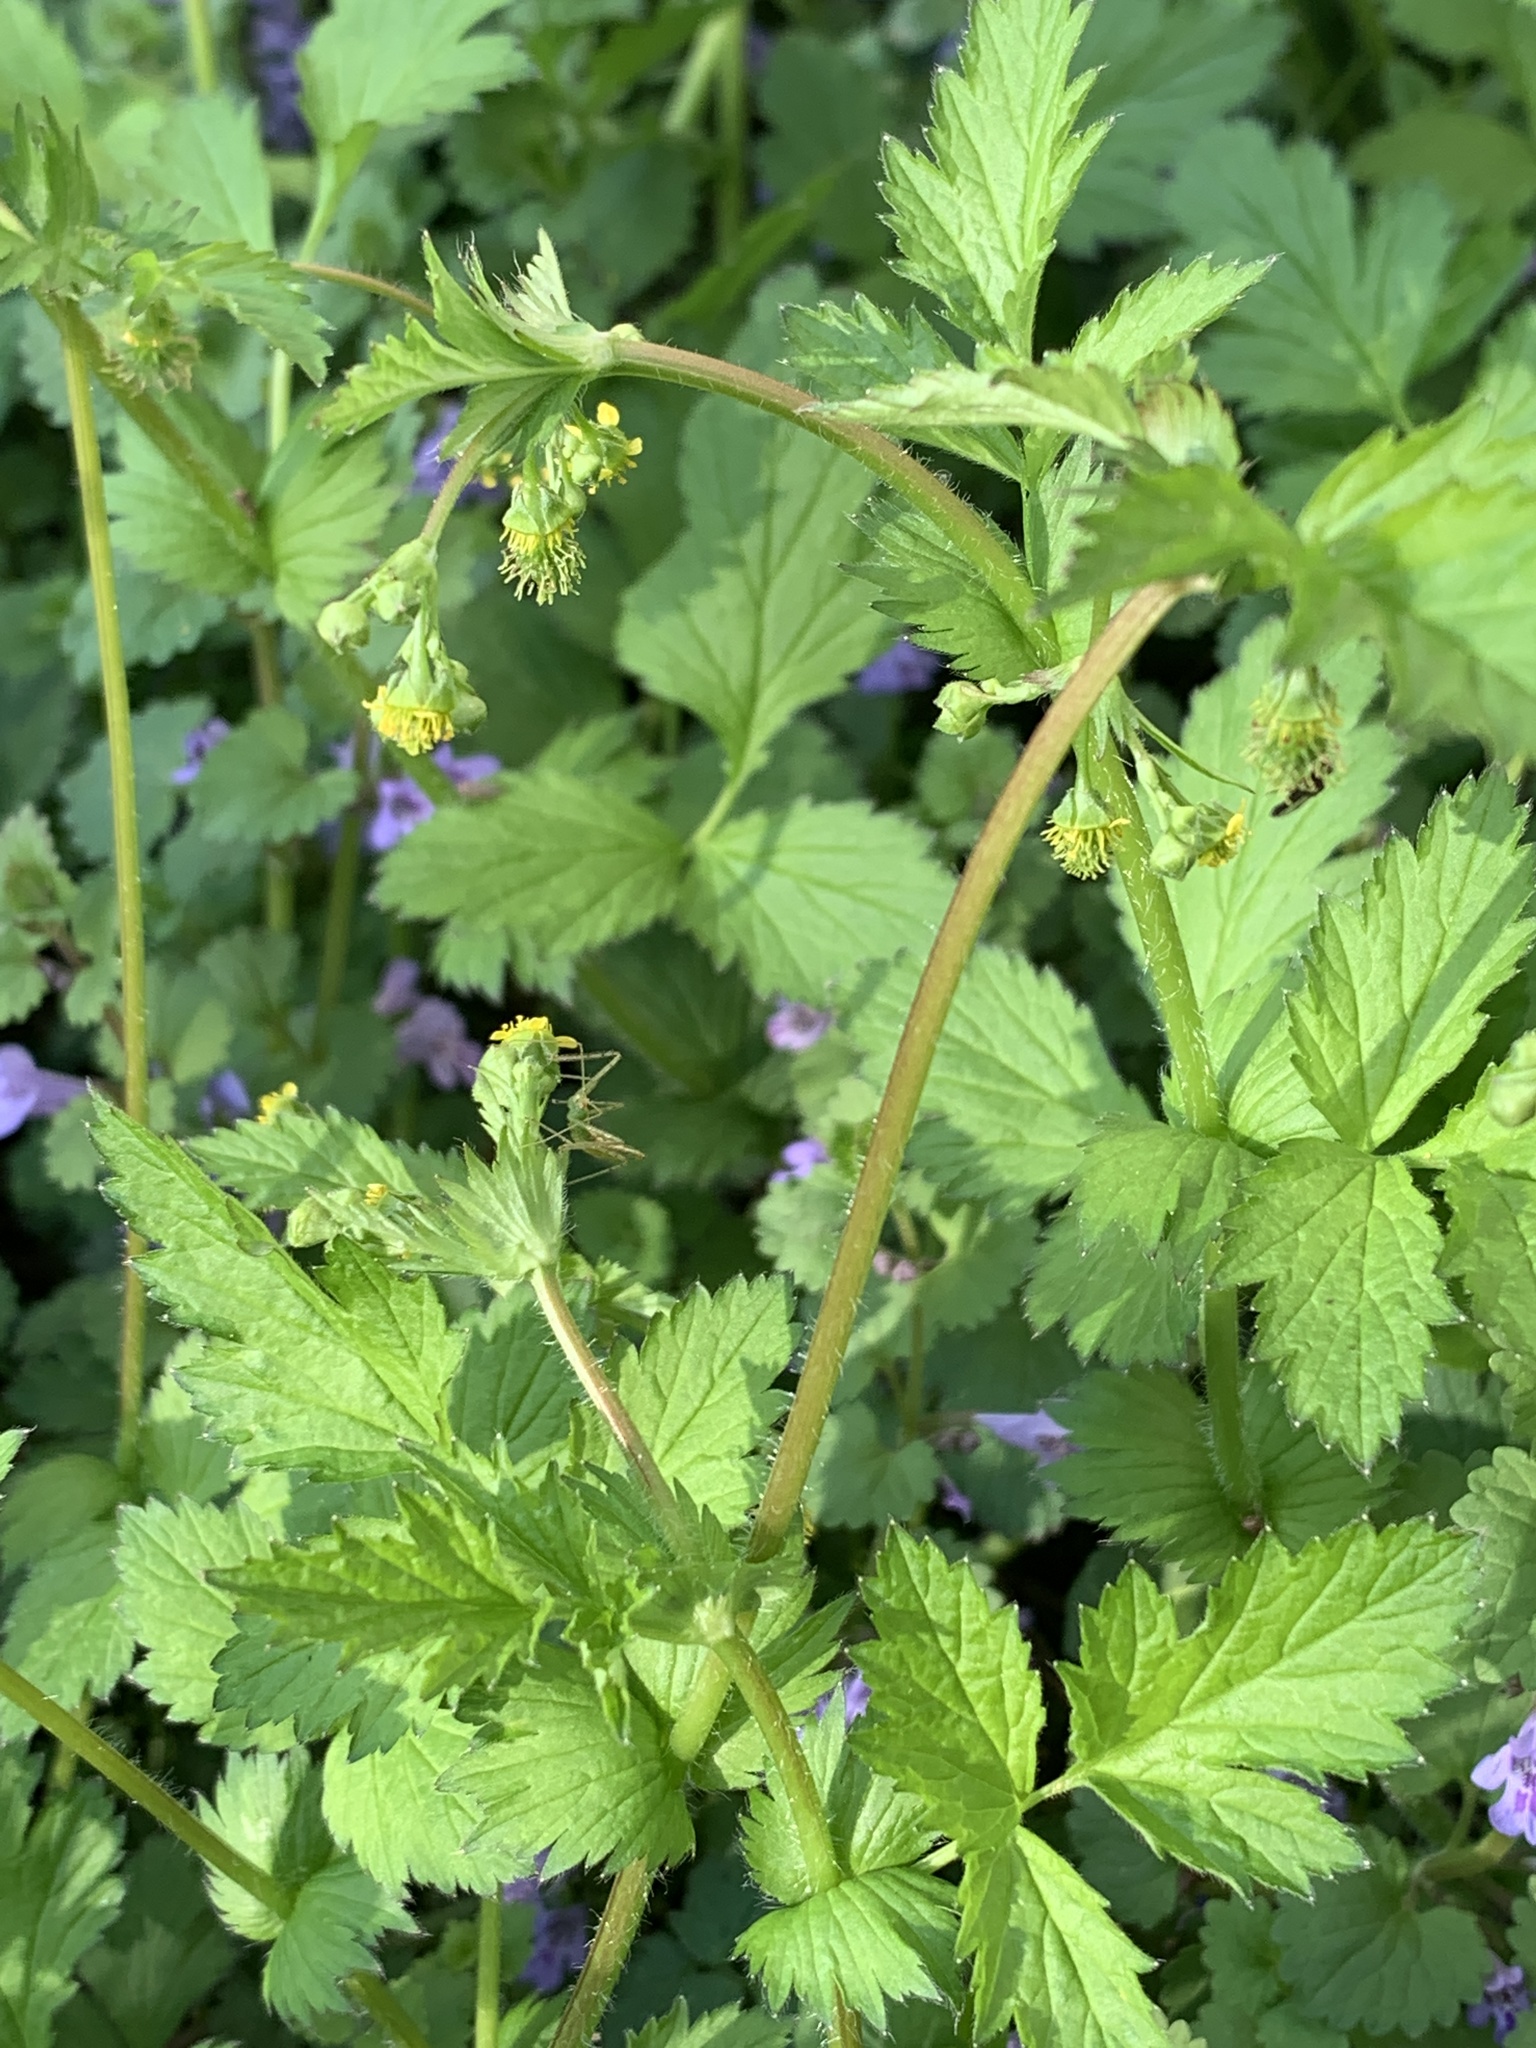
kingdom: Plantae
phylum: Tracheophyta
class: Magnoliopsida
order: Rosales
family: Rosaceae
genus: Geum
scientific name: Geum vernum
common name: Spring avens
